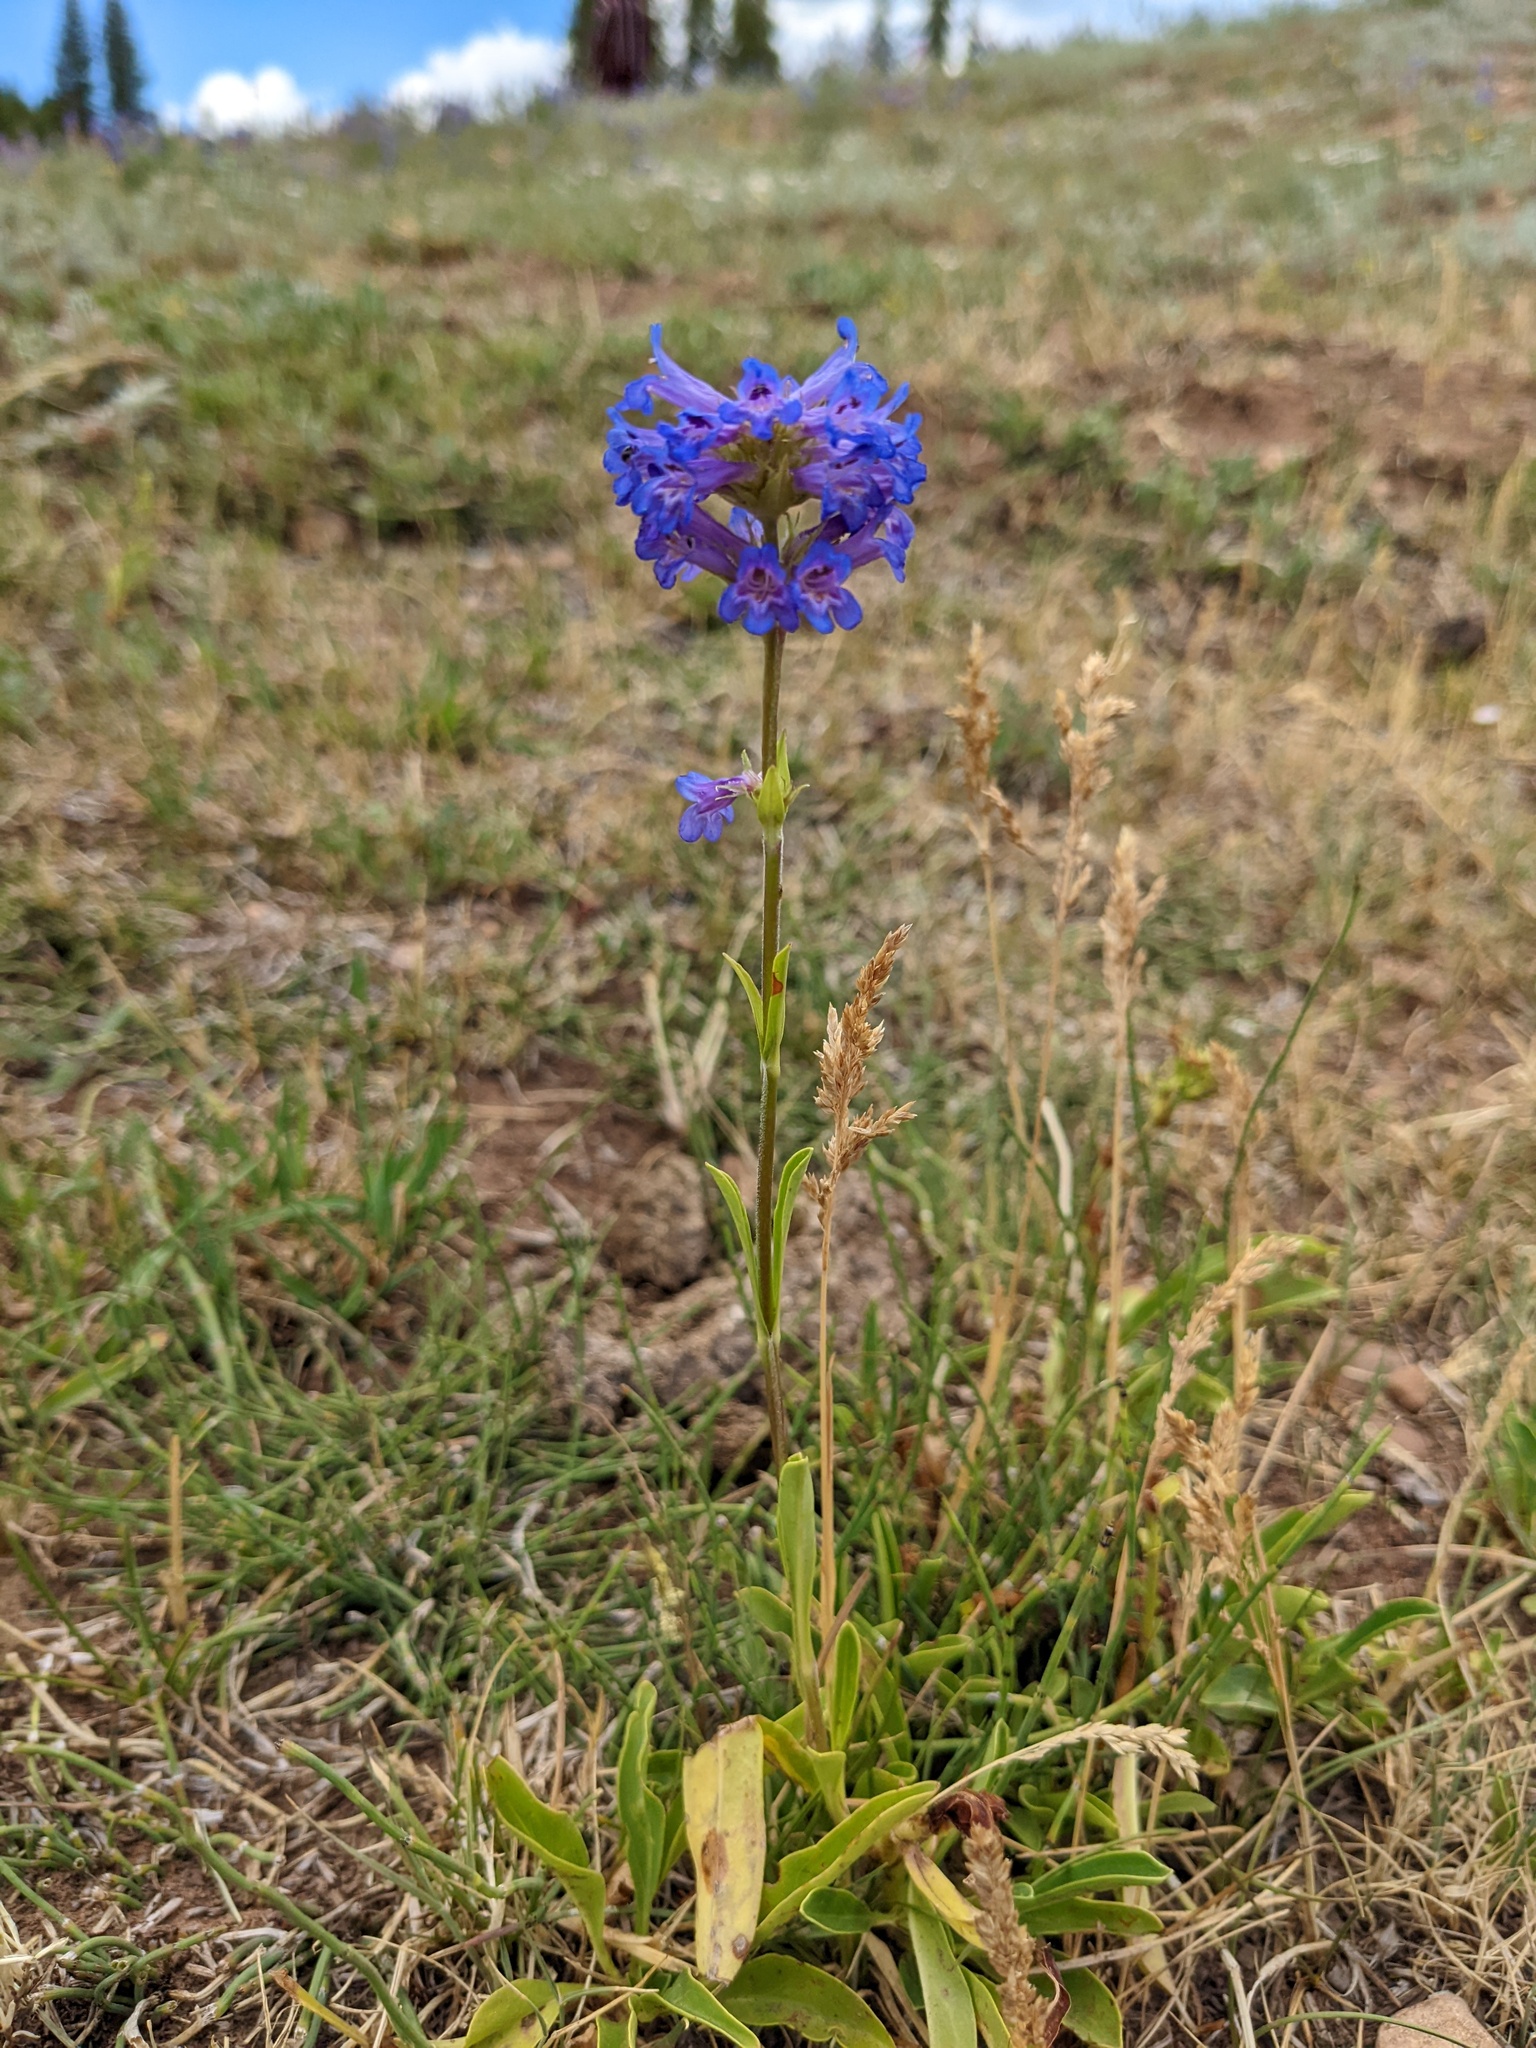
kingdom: Plantae
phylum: Tracheophyta
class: Magnoliopsida
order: Lamiales
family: Plantaginaceae
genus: Penstemon
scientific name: Penstemon rydbergii
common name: Rydberg's beardtongue
